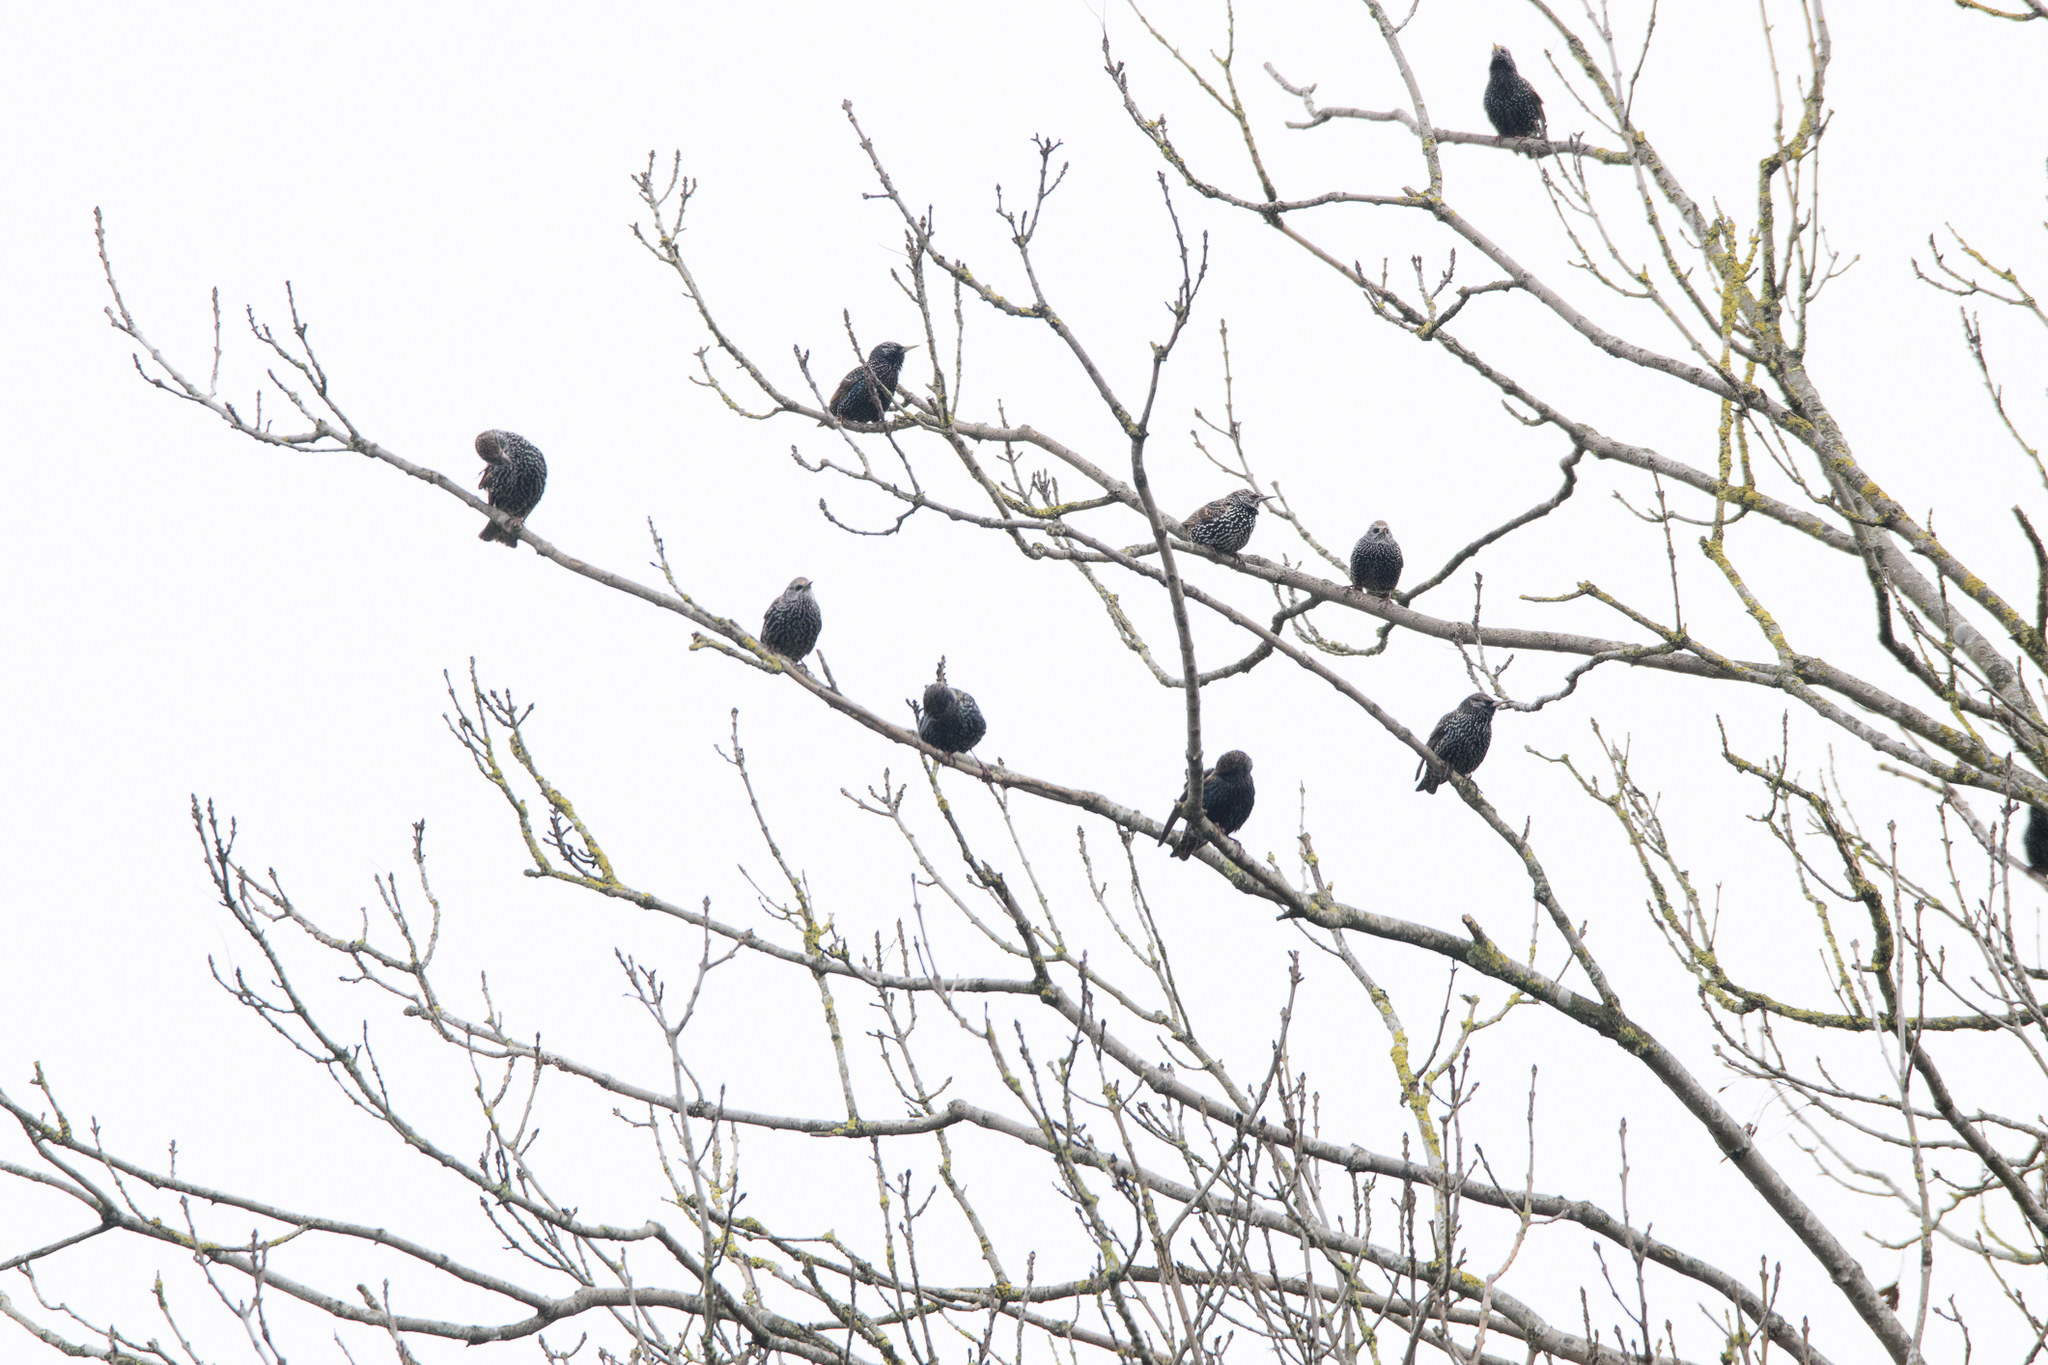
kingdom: Animalia
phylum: Chordata
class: Aves
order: Passeriformes
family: Sturnidae
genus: Sturnus
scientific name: Sturnus vulgaris
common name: Common starling
